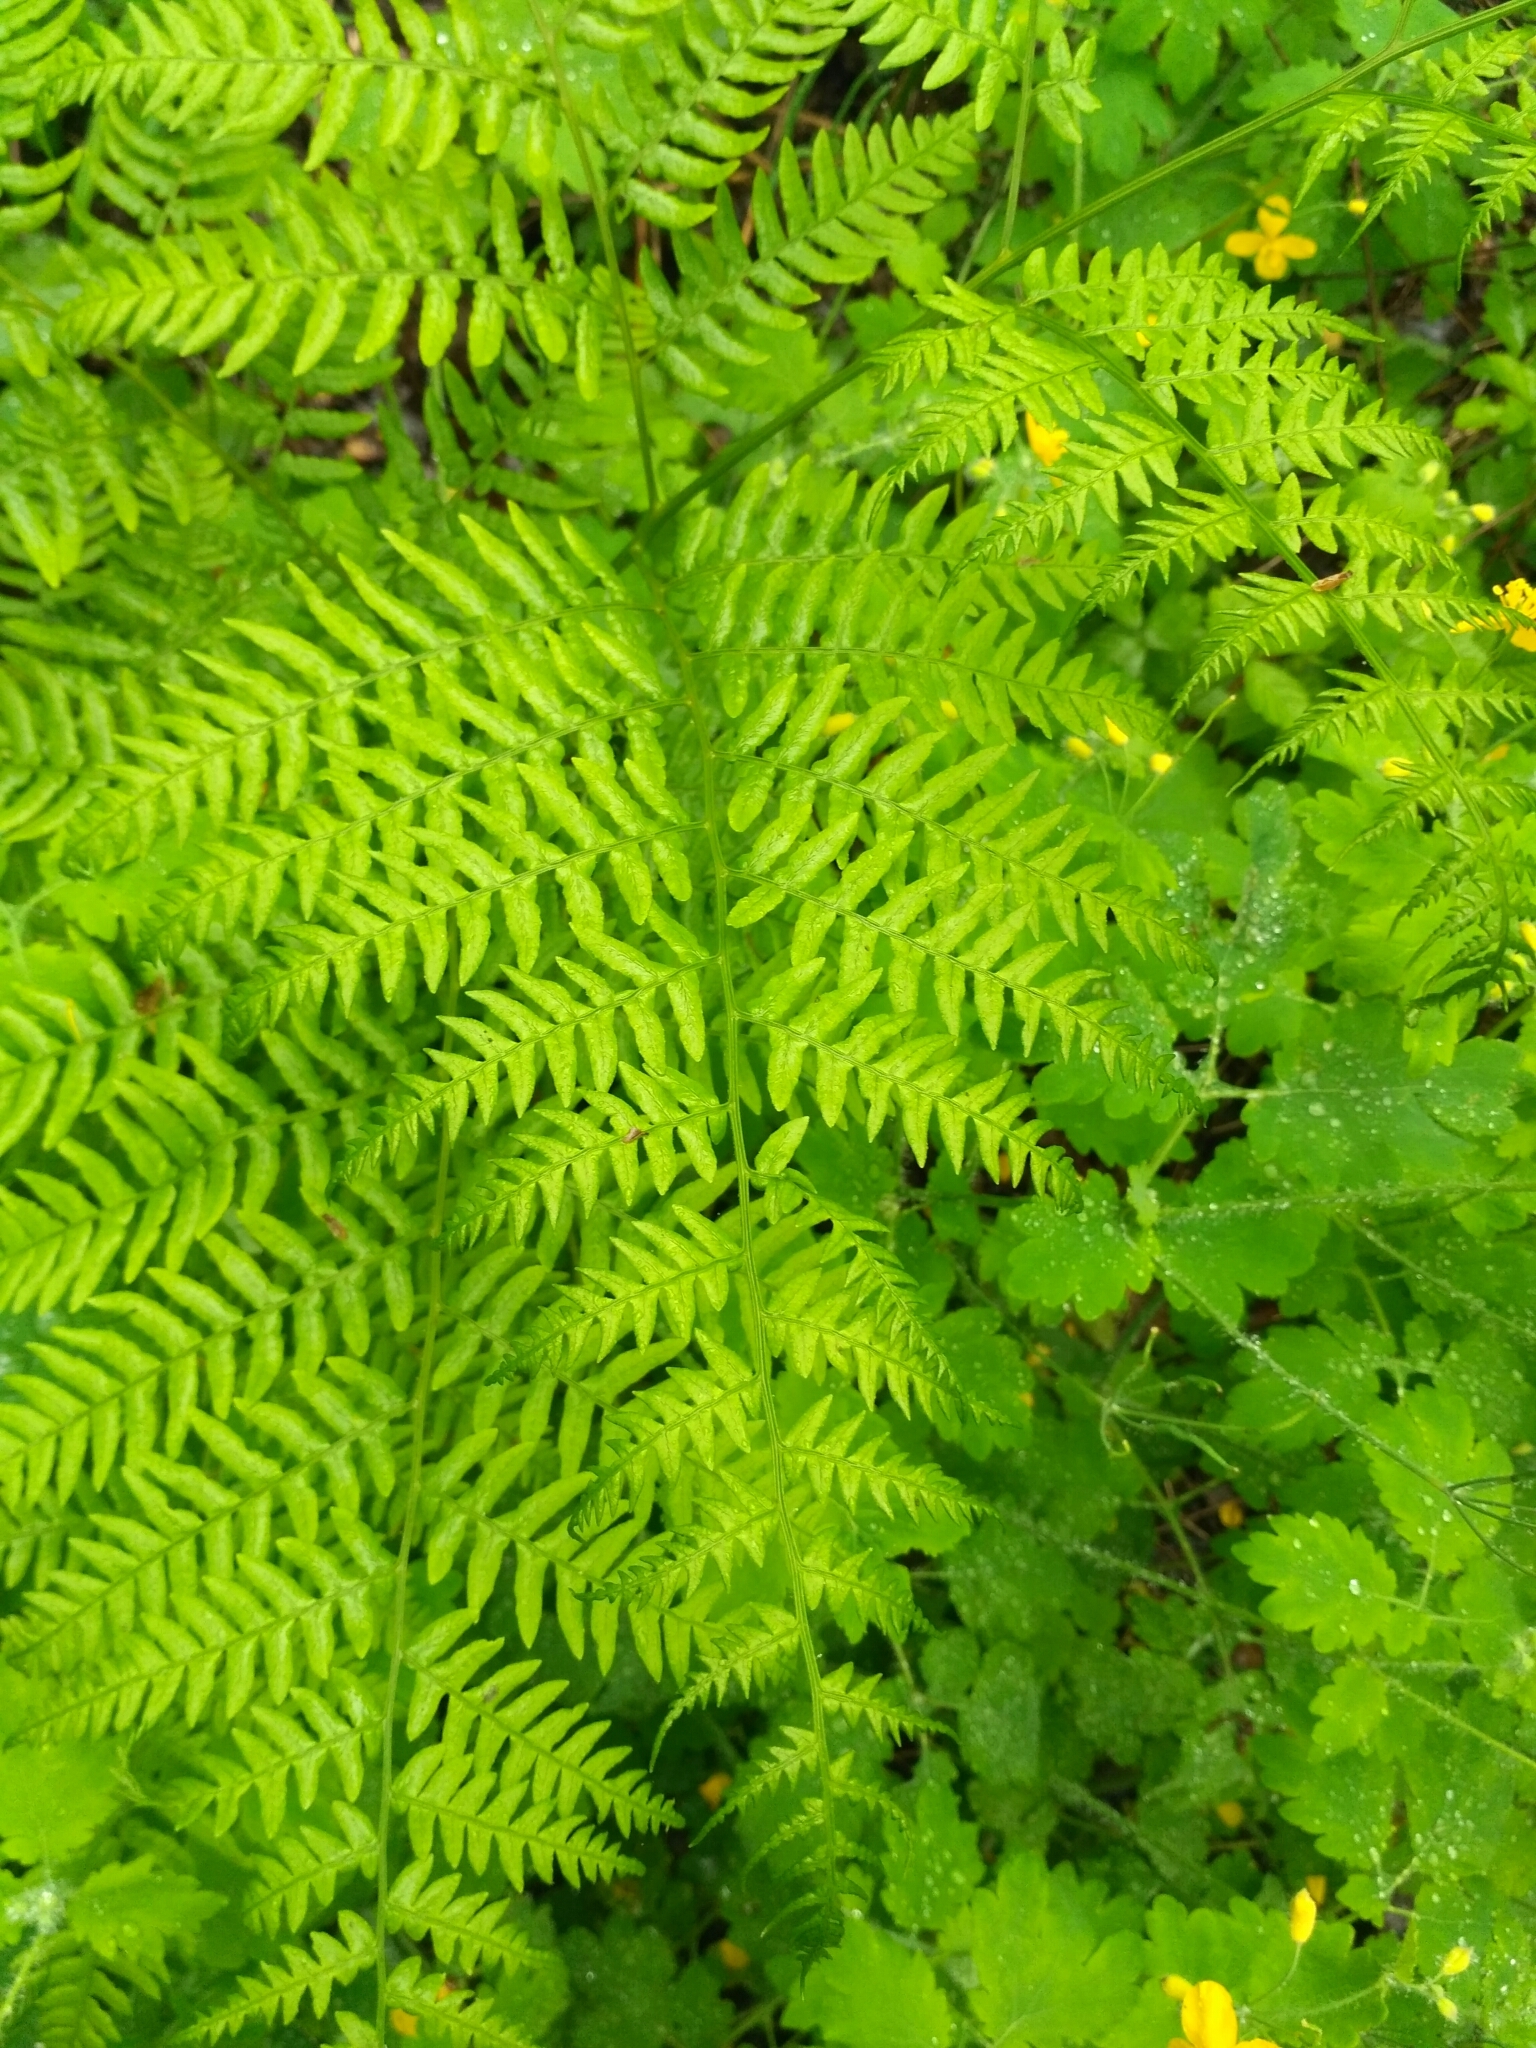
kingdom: Plantae
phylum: Tracheophyta
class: Polypodiopsida
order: Polypodiales
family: Dennstaedtiaceae
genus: Pteridium
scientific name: Pteridium aquilinum
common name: Bracken
